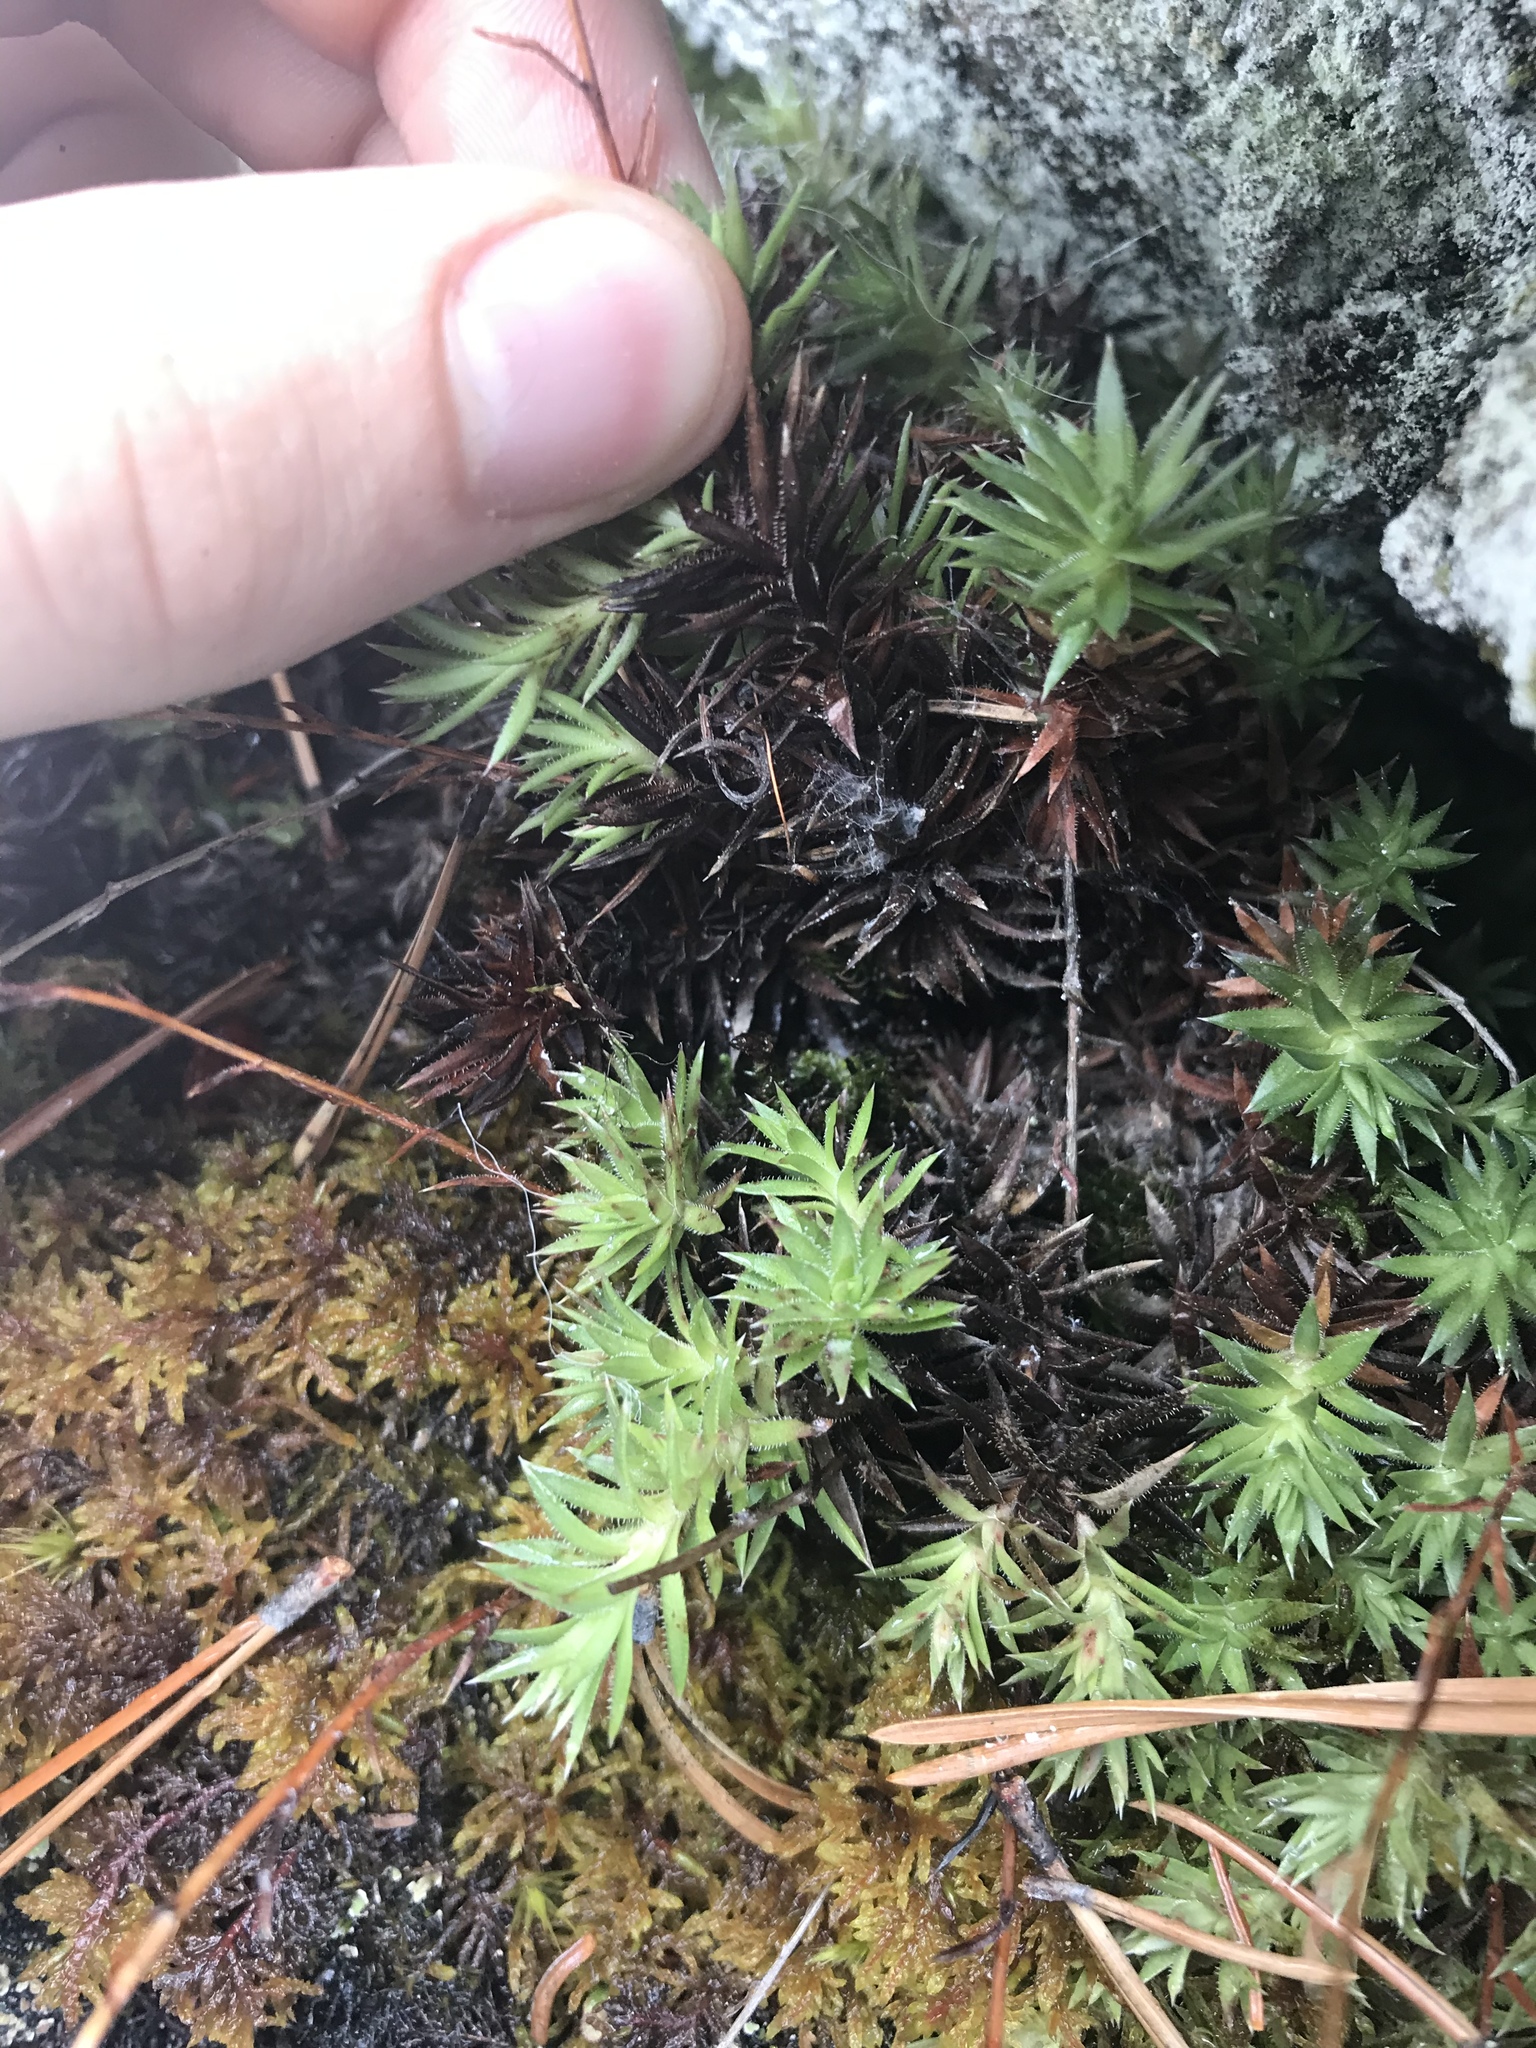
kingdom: Plantae
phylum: Tracheophyta
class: Magnoliopsida
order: Saxifragales
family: Saxifragaceae
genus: Saxifraga
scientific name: Saxifraga bronchialis
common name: Matted saxifrage
